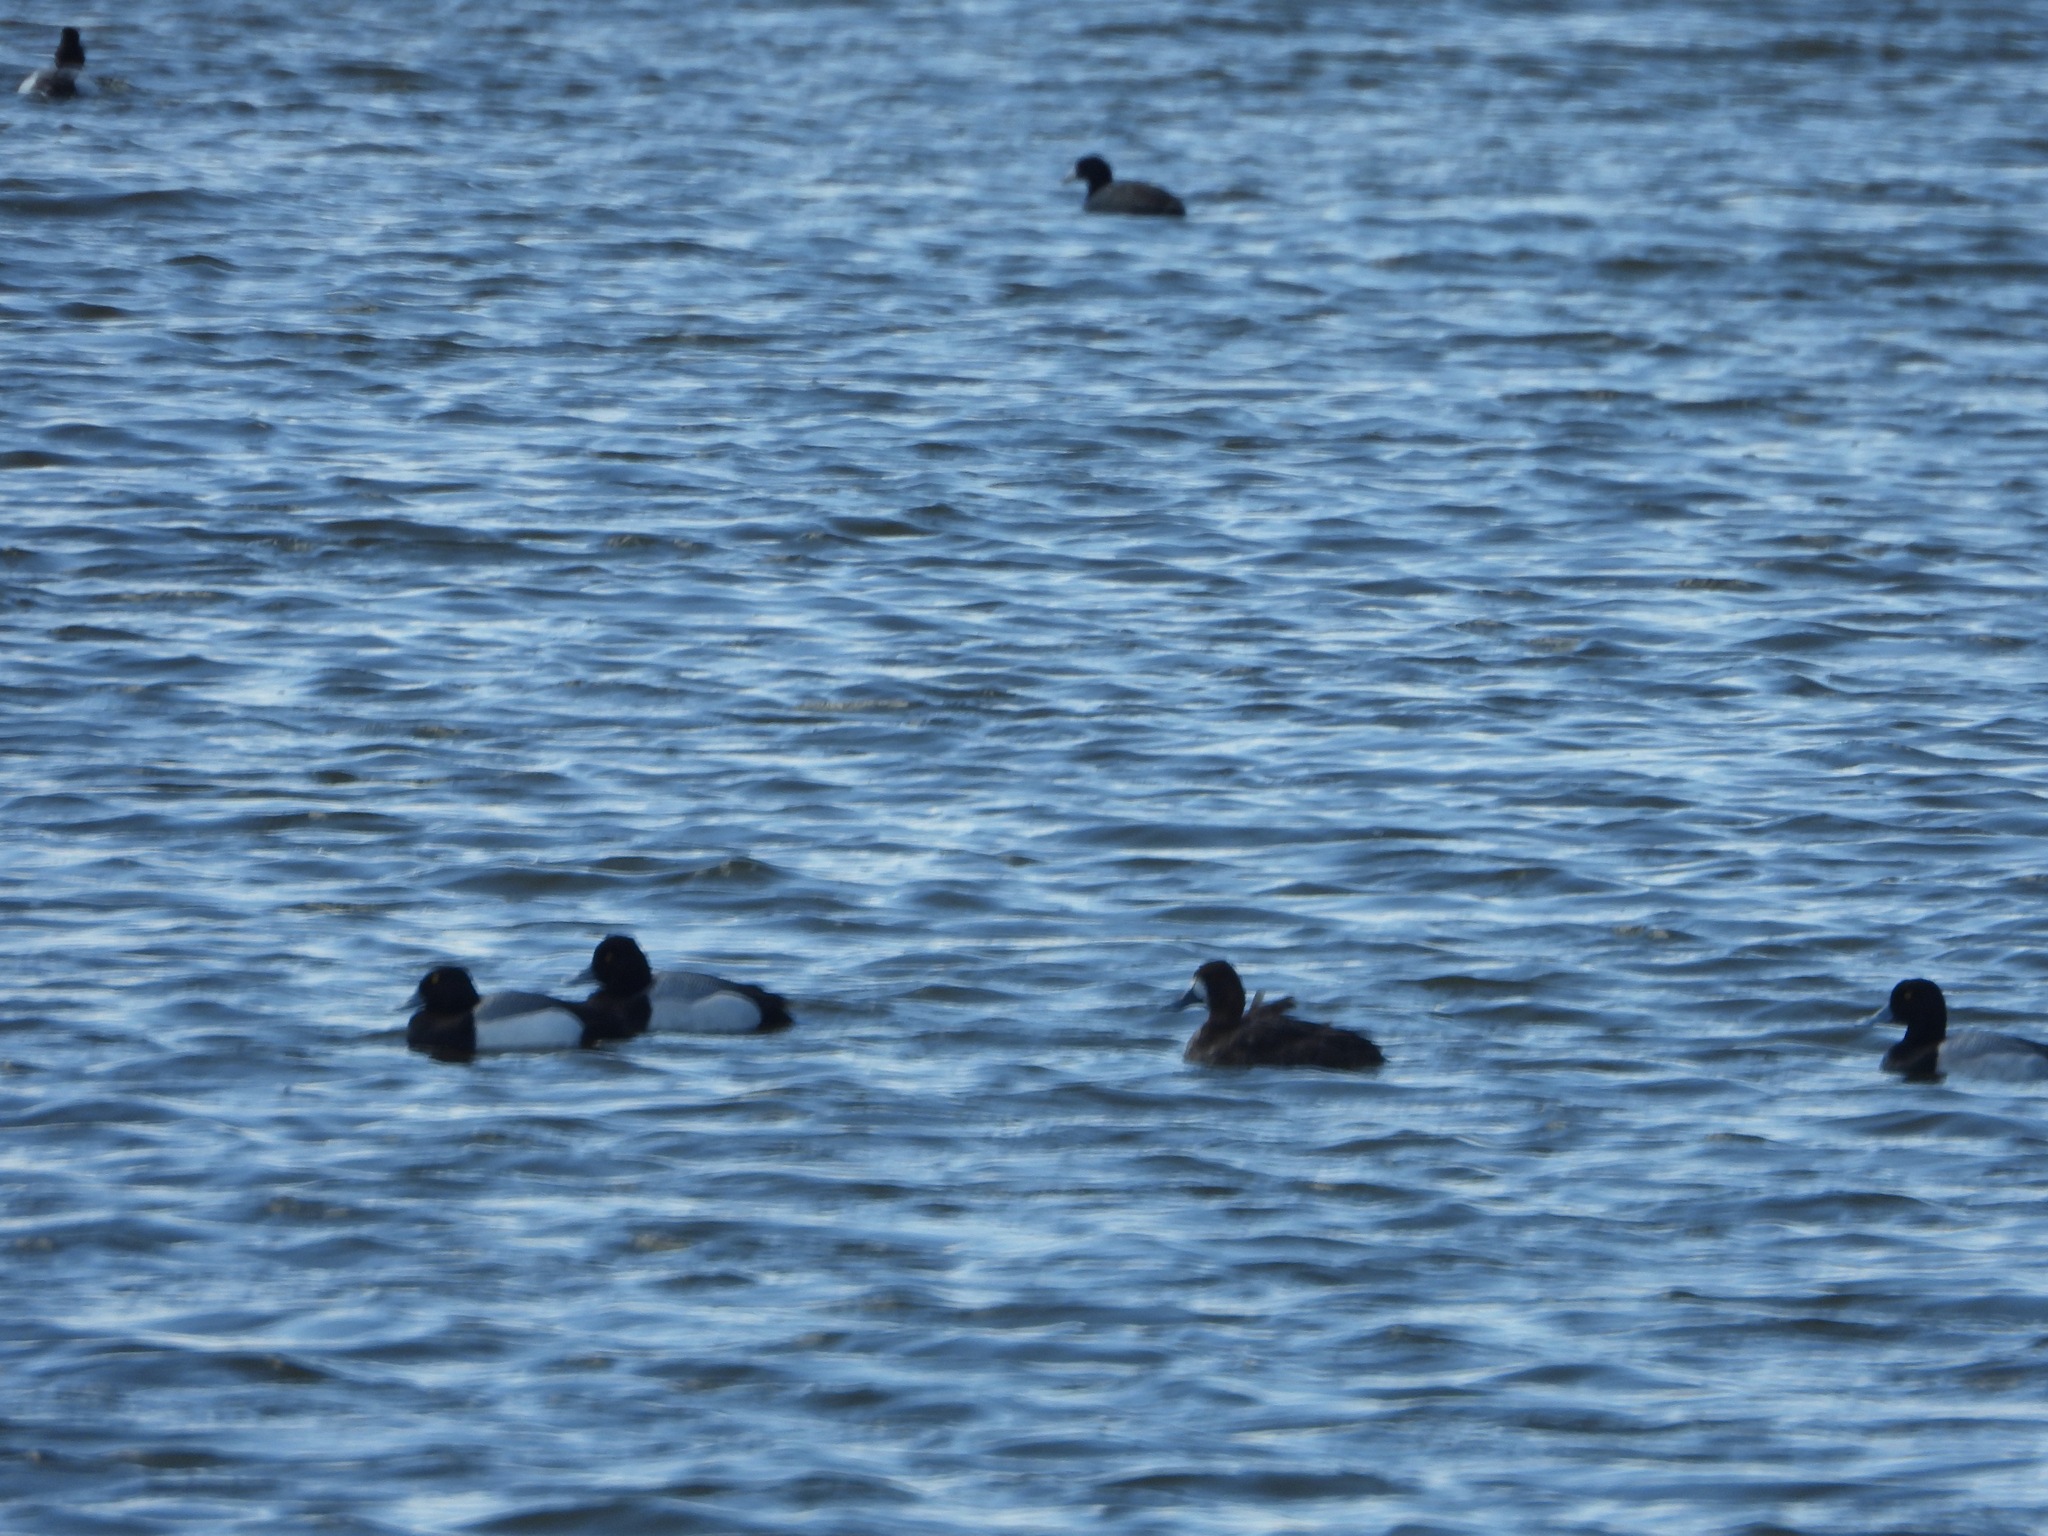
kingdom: Animalia
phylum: Chordata
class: Aves
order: Anseriformes
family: Anatidae
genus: Aythya
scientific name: Aythya affinis
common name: Lesser scaup
